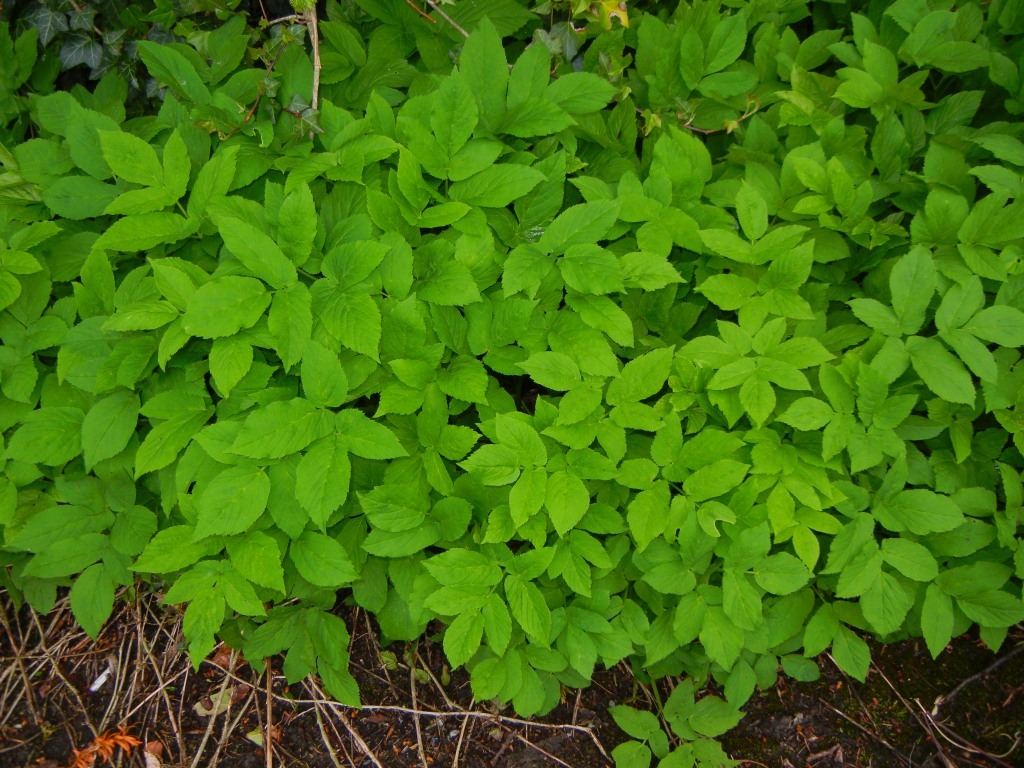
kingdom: Plantae
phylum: Tracheophyta
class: Magnoliopsida
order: Apiales
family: Apiaceae
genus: Aegopodium
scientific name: Aegopodium podagraria
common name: Ground-elder
